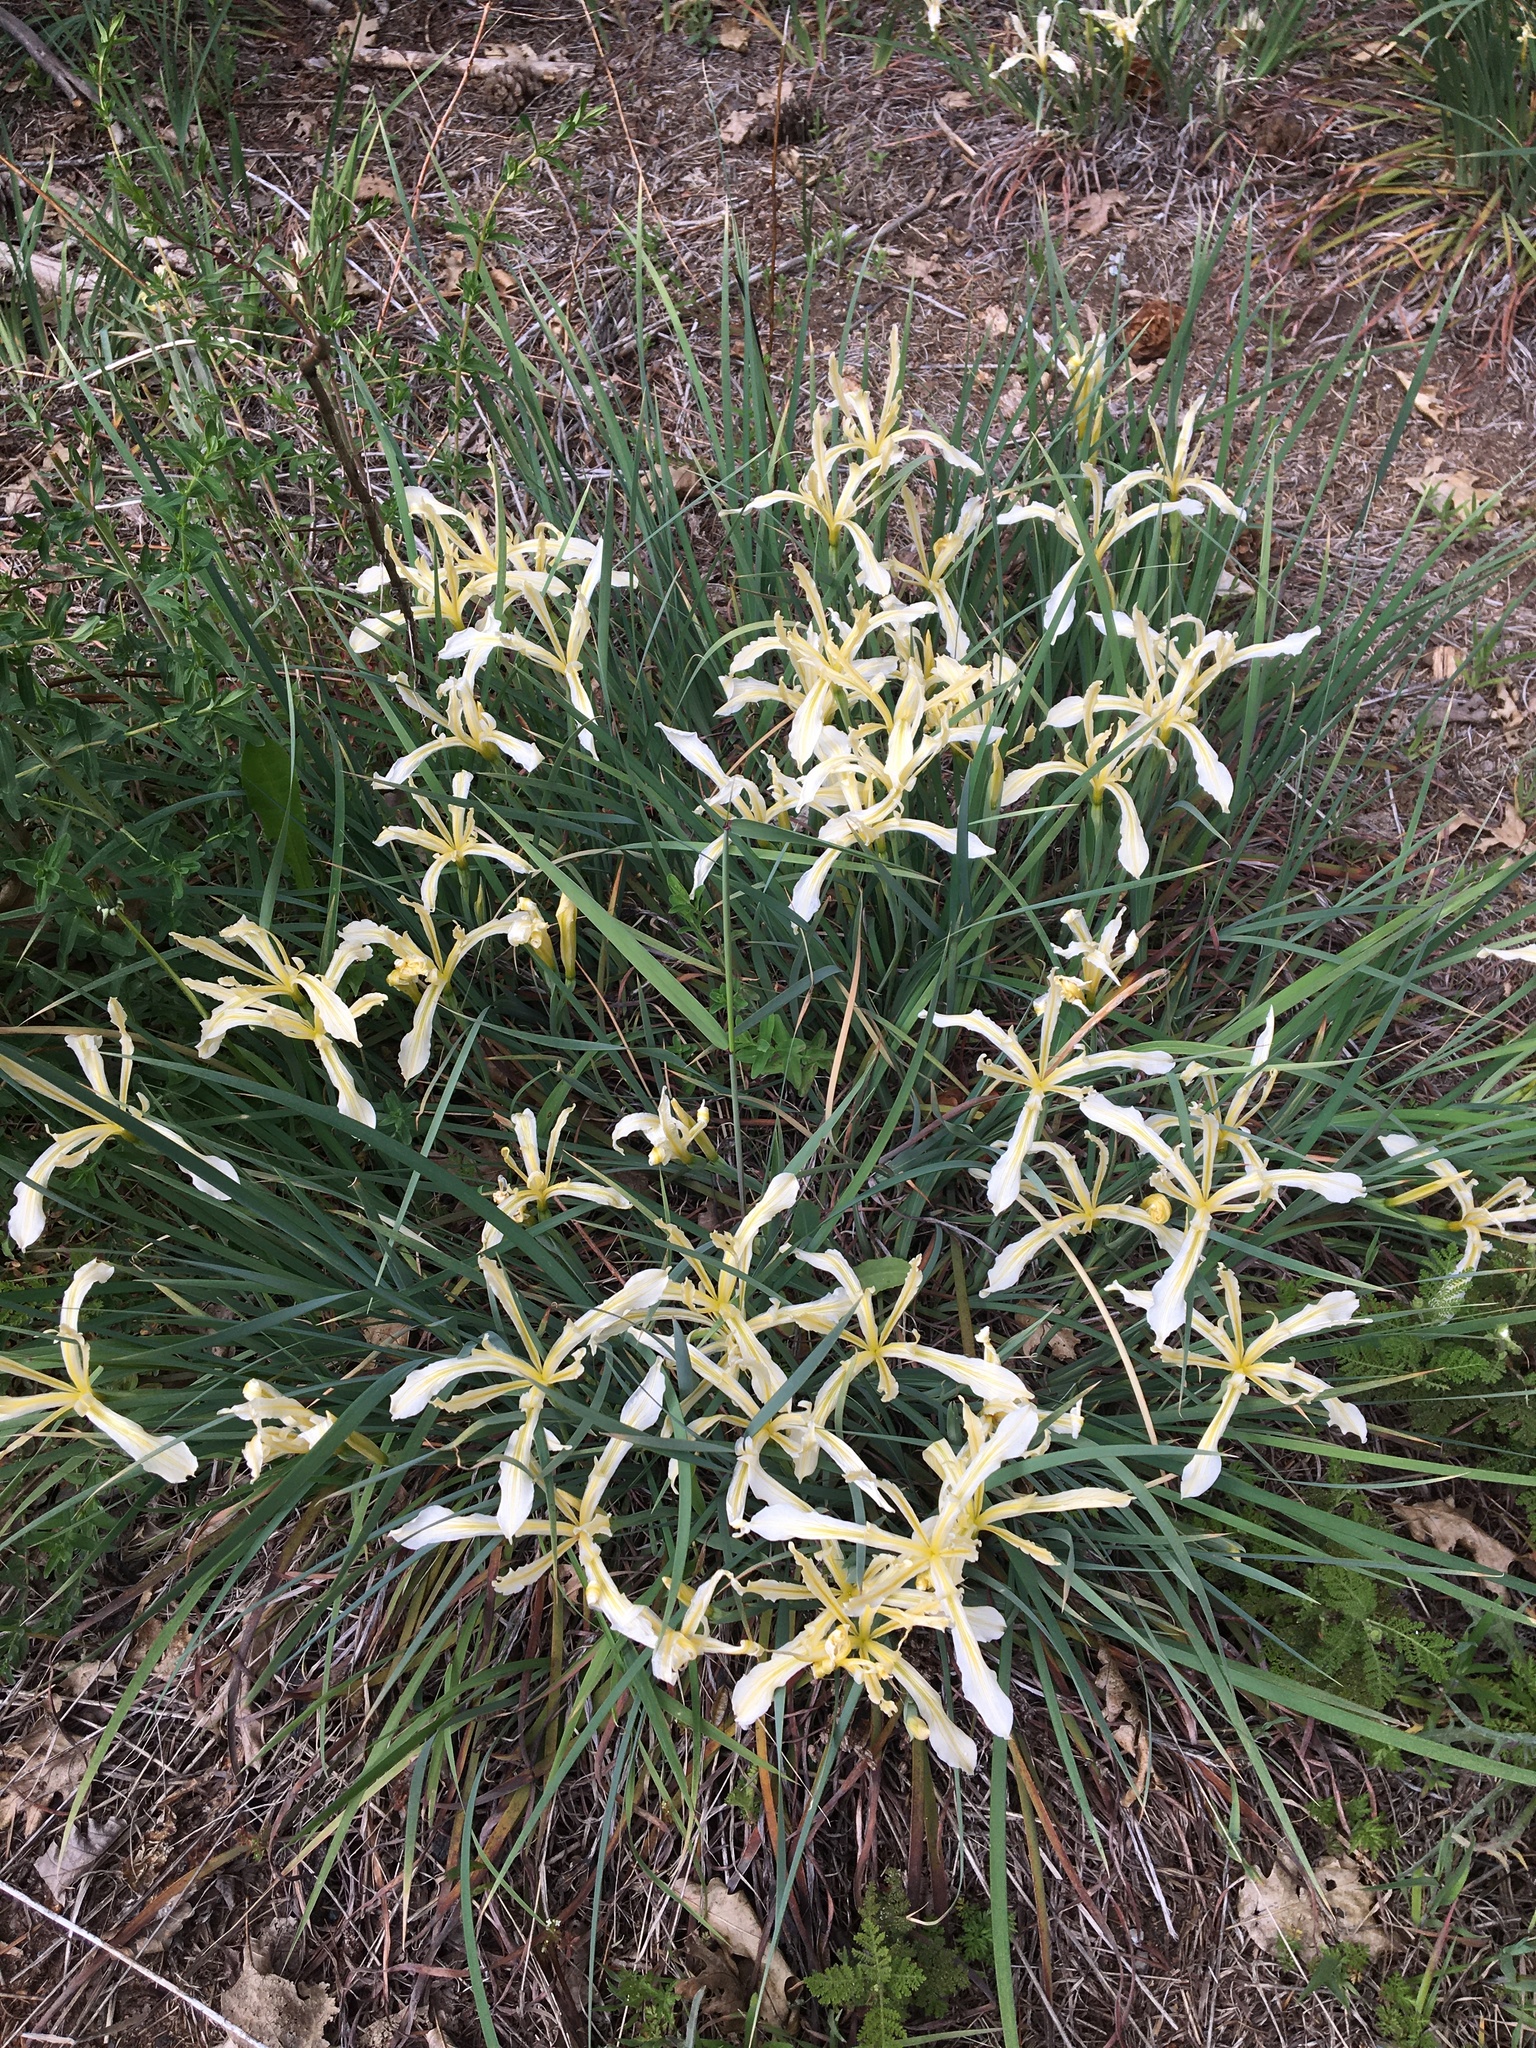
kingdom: Plantae
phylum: Tracheophyta
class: Liliopsida
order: Asparagales
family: Iridaceae
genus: Iris
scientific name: Iris hartwegii
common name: Sierra iris
